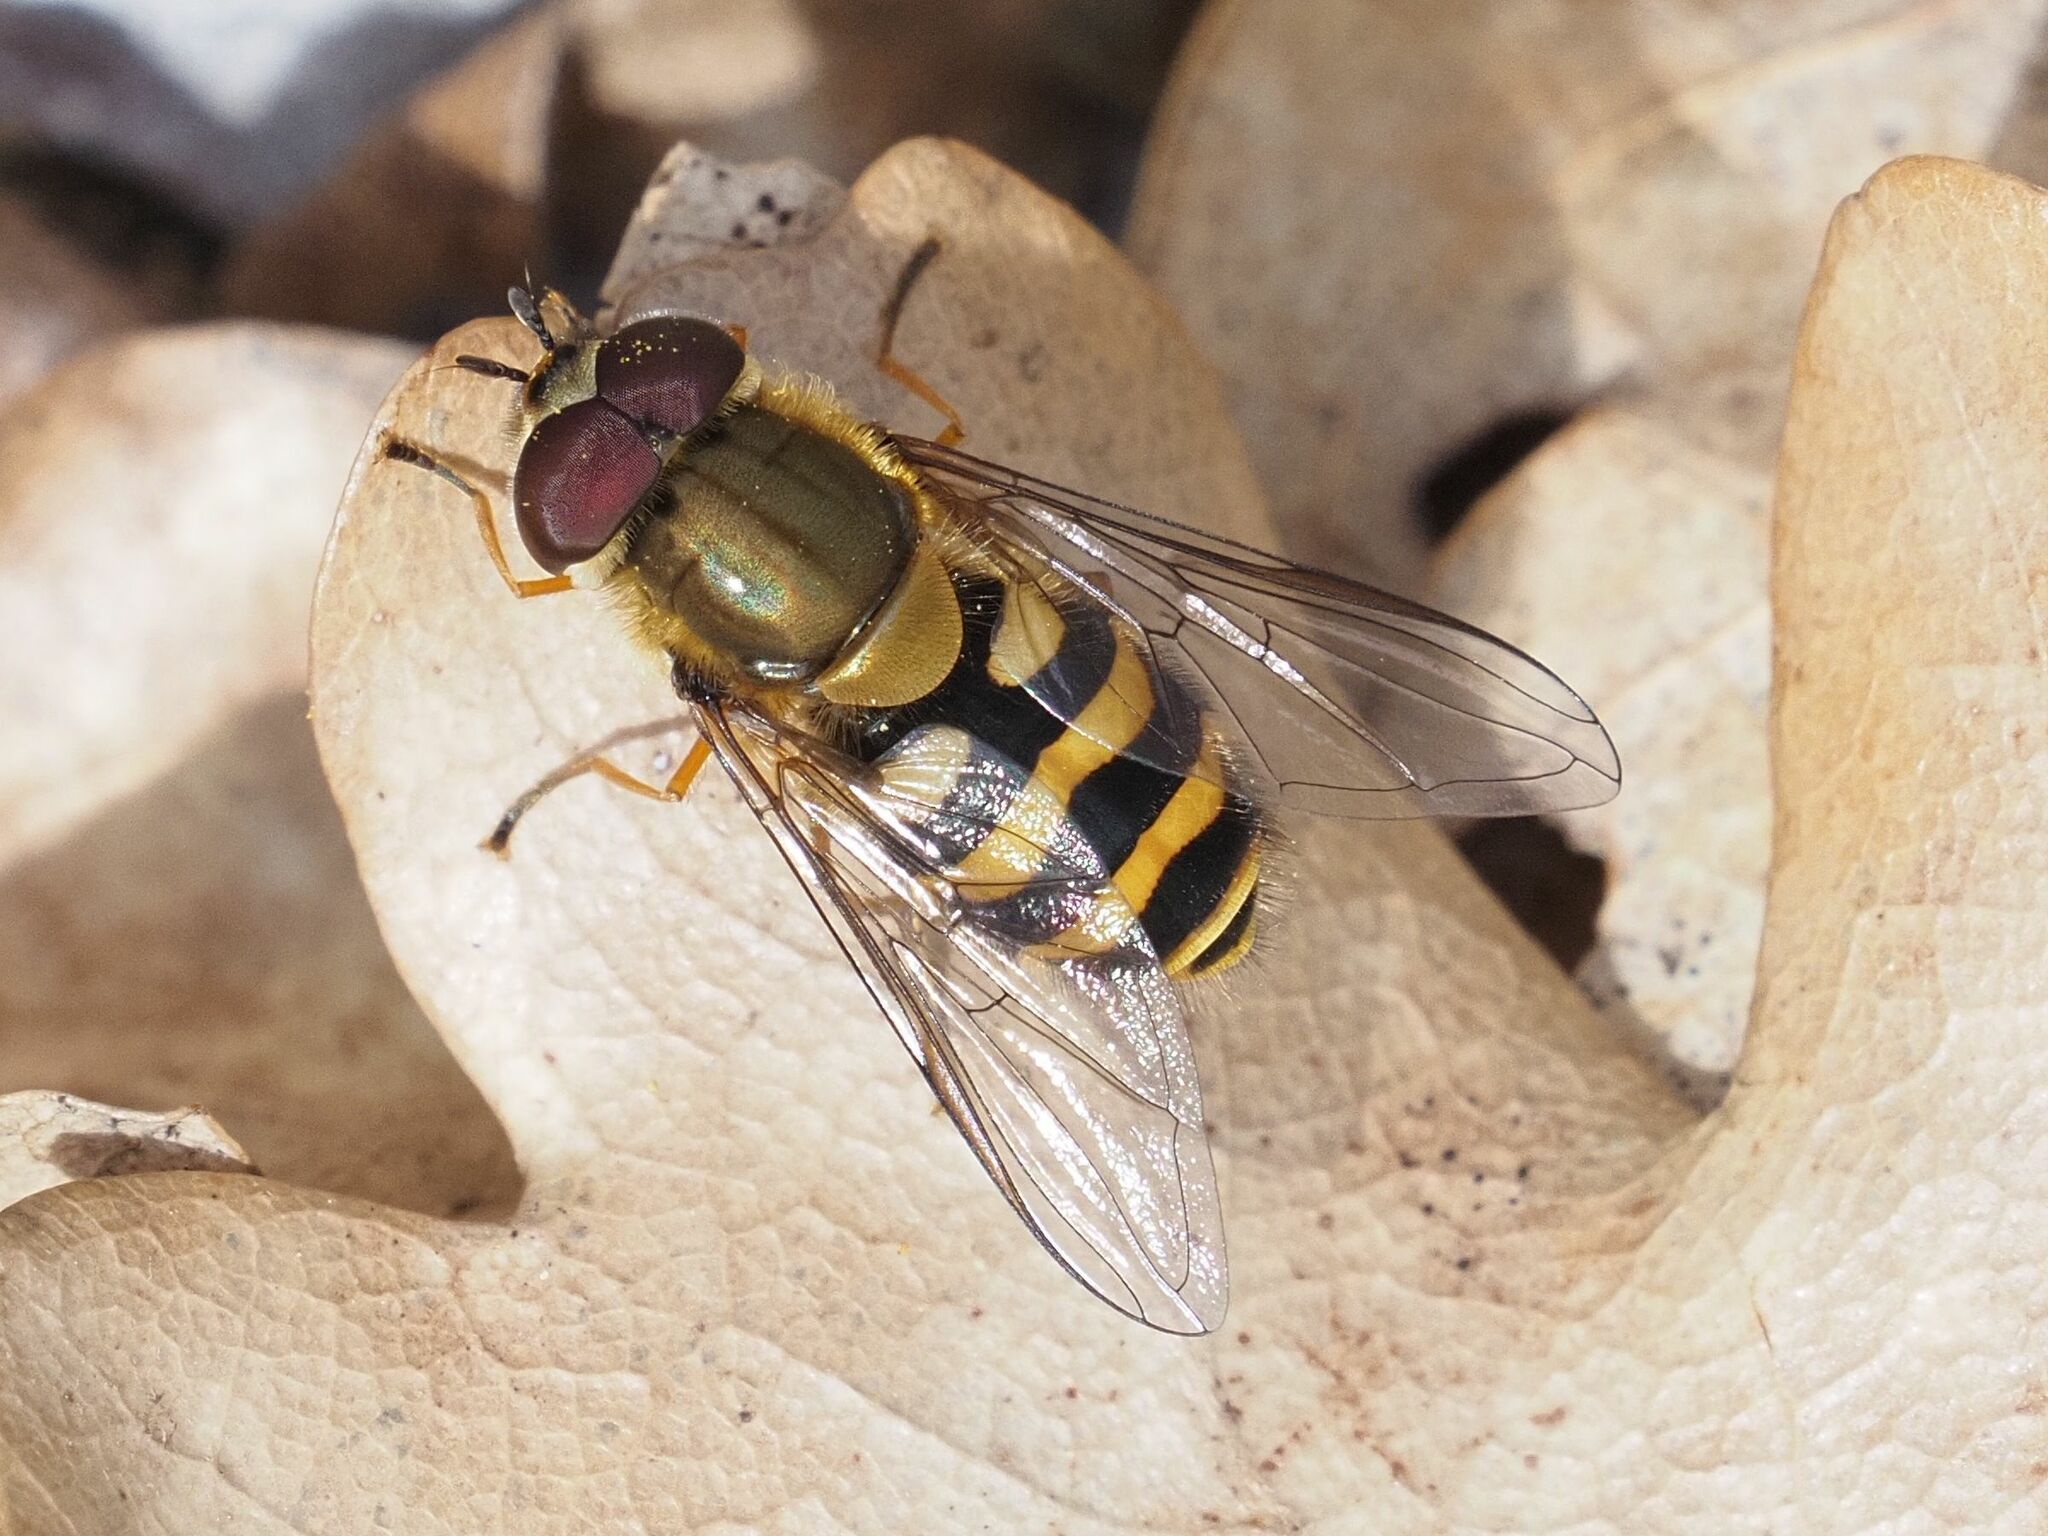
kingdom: Animalia
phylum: Arthropoda
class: Insecta
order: Diptera
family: Syrphidae
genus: Syrphus
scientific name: Syrphus torvus
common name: Hairy-eyed flower fly
